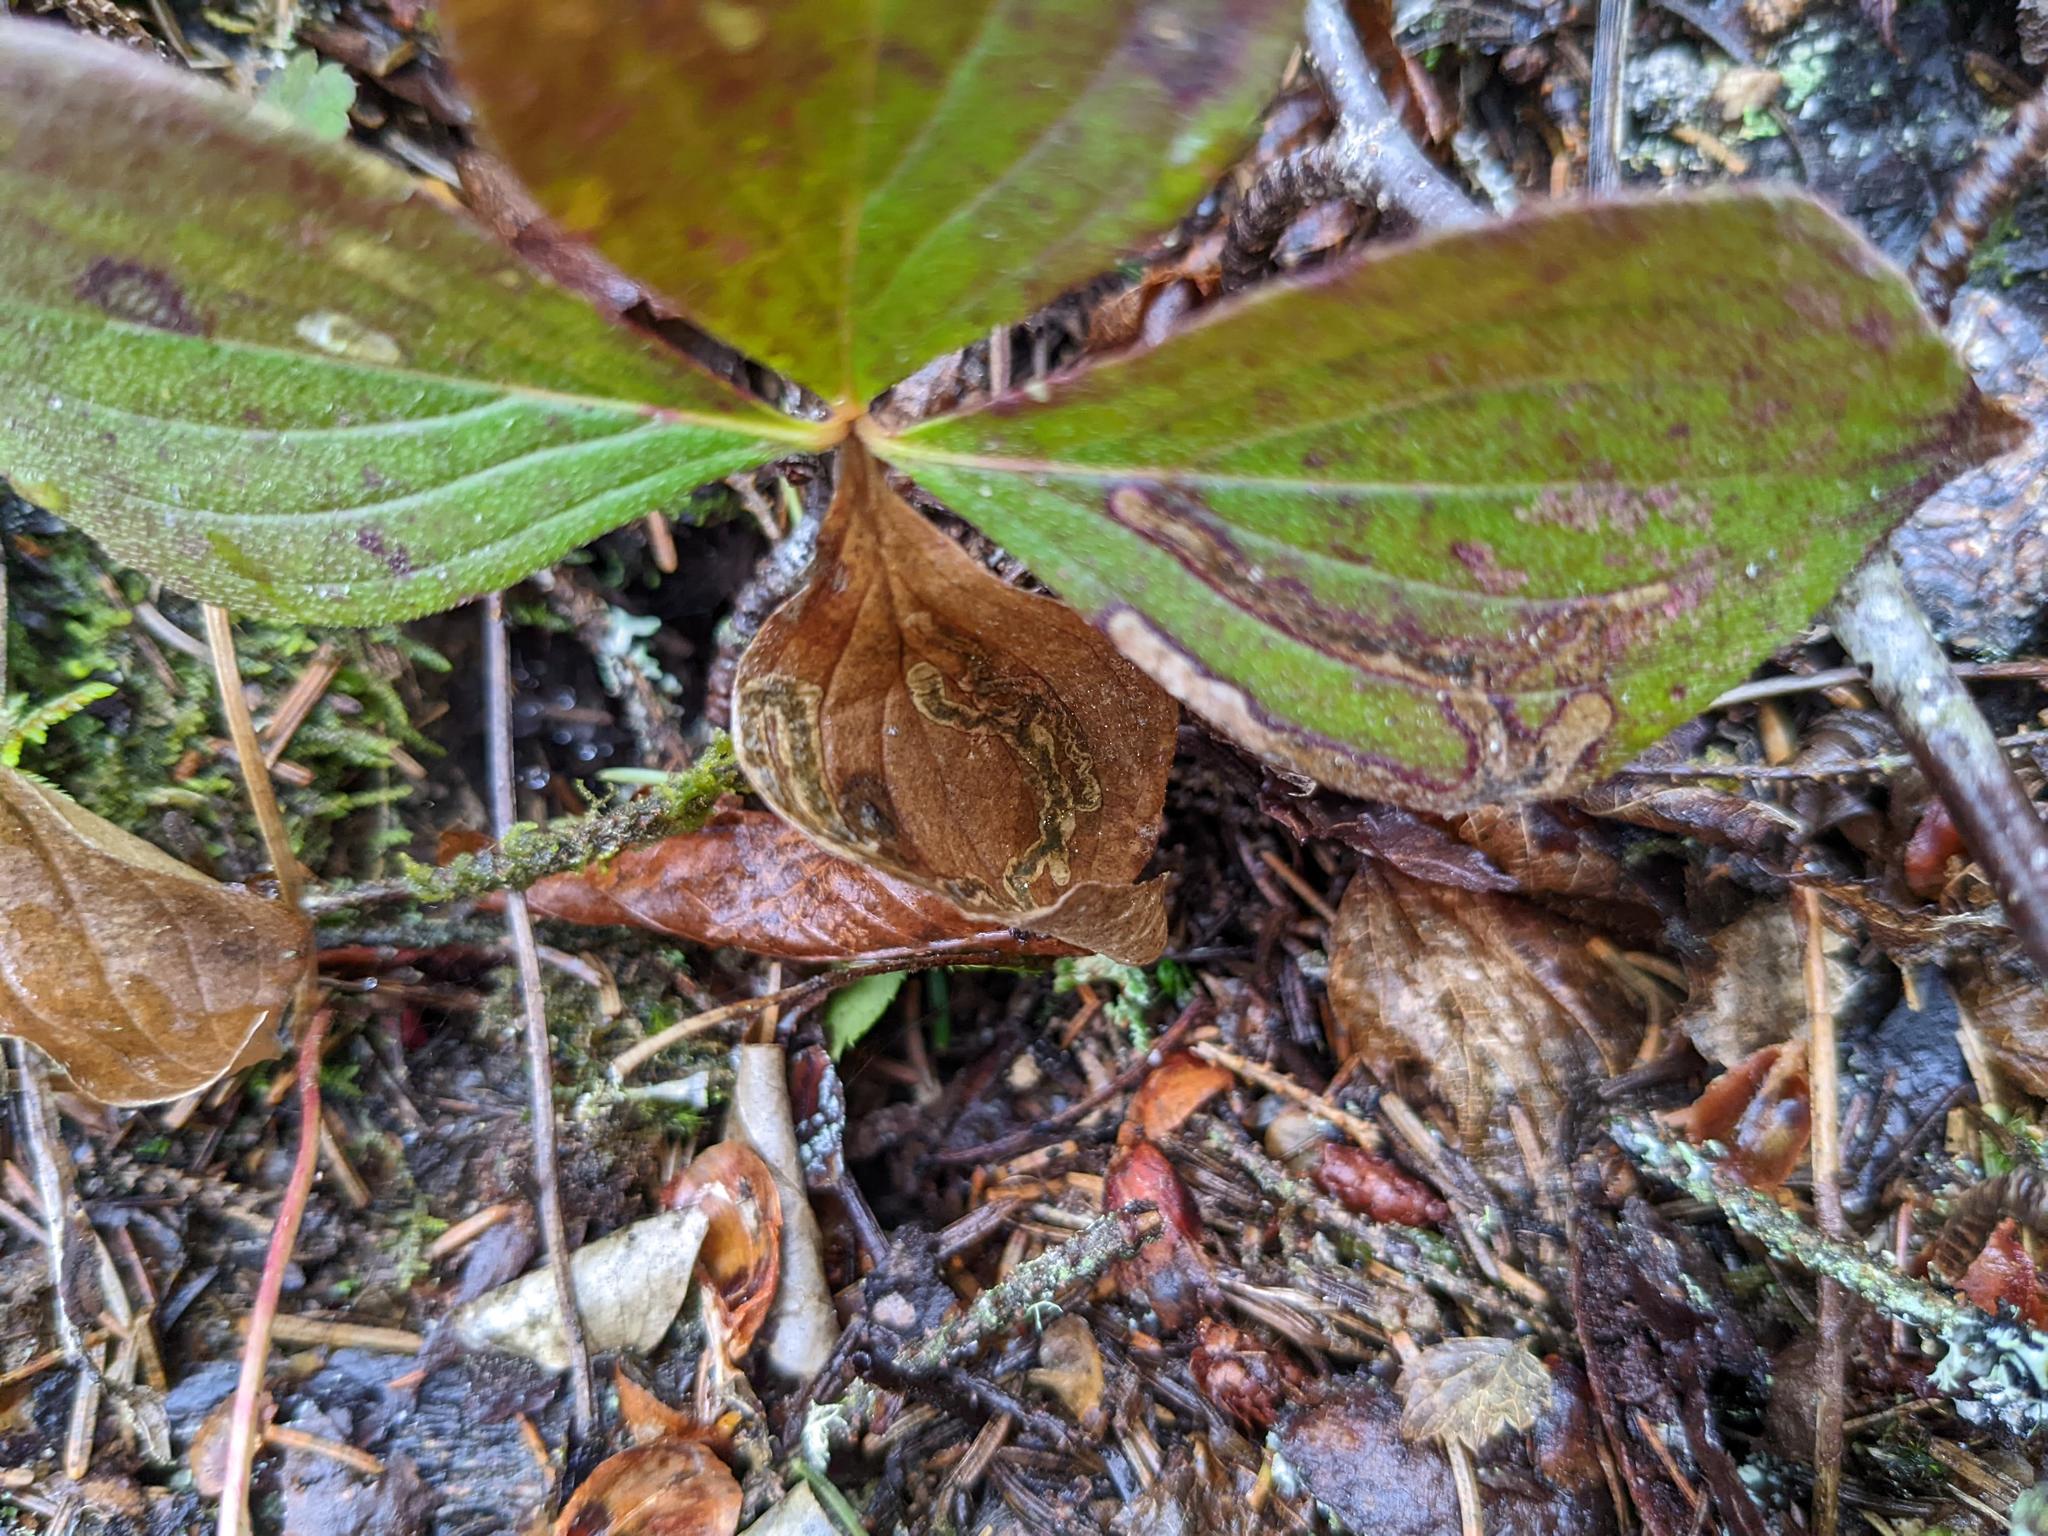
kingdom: Animalia
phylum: Arthropoda
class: Insecta
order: Diptera
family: Agromyzidae
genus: Phytomyza
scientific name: Phytomyza agromyzina
